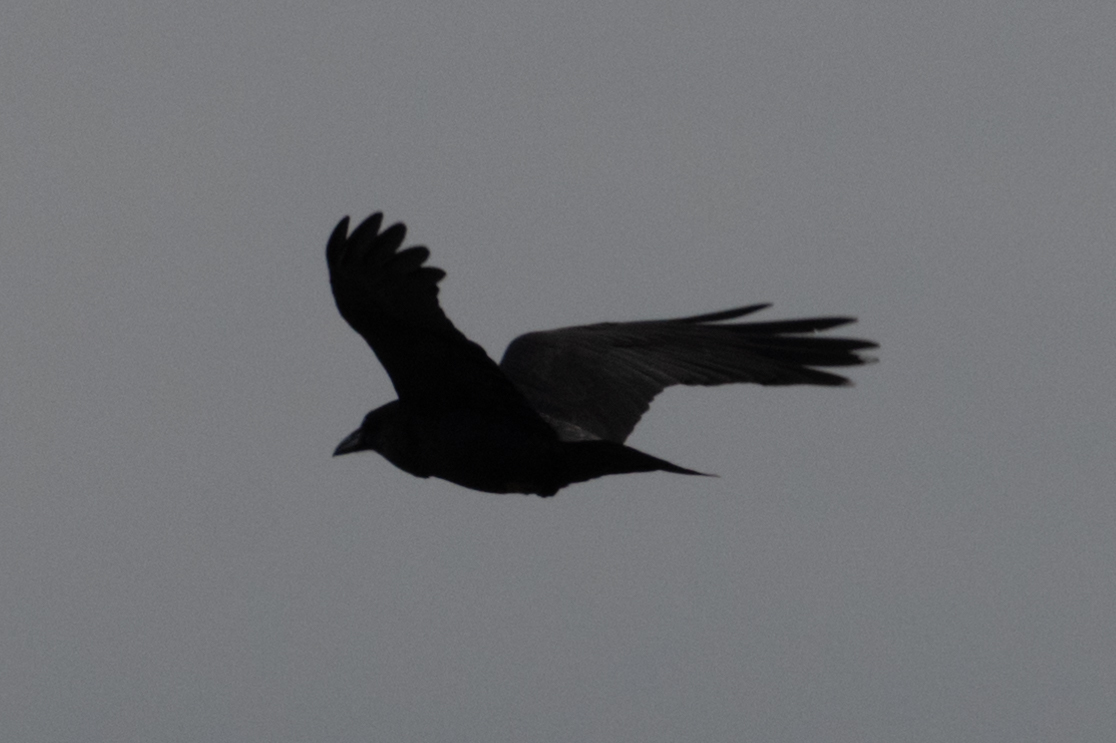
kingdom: Animalia
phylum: Chordata
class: Aves
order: Passeriformes
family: Corvidae
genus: Corvus
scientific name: Corvus corax
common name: Common raven
